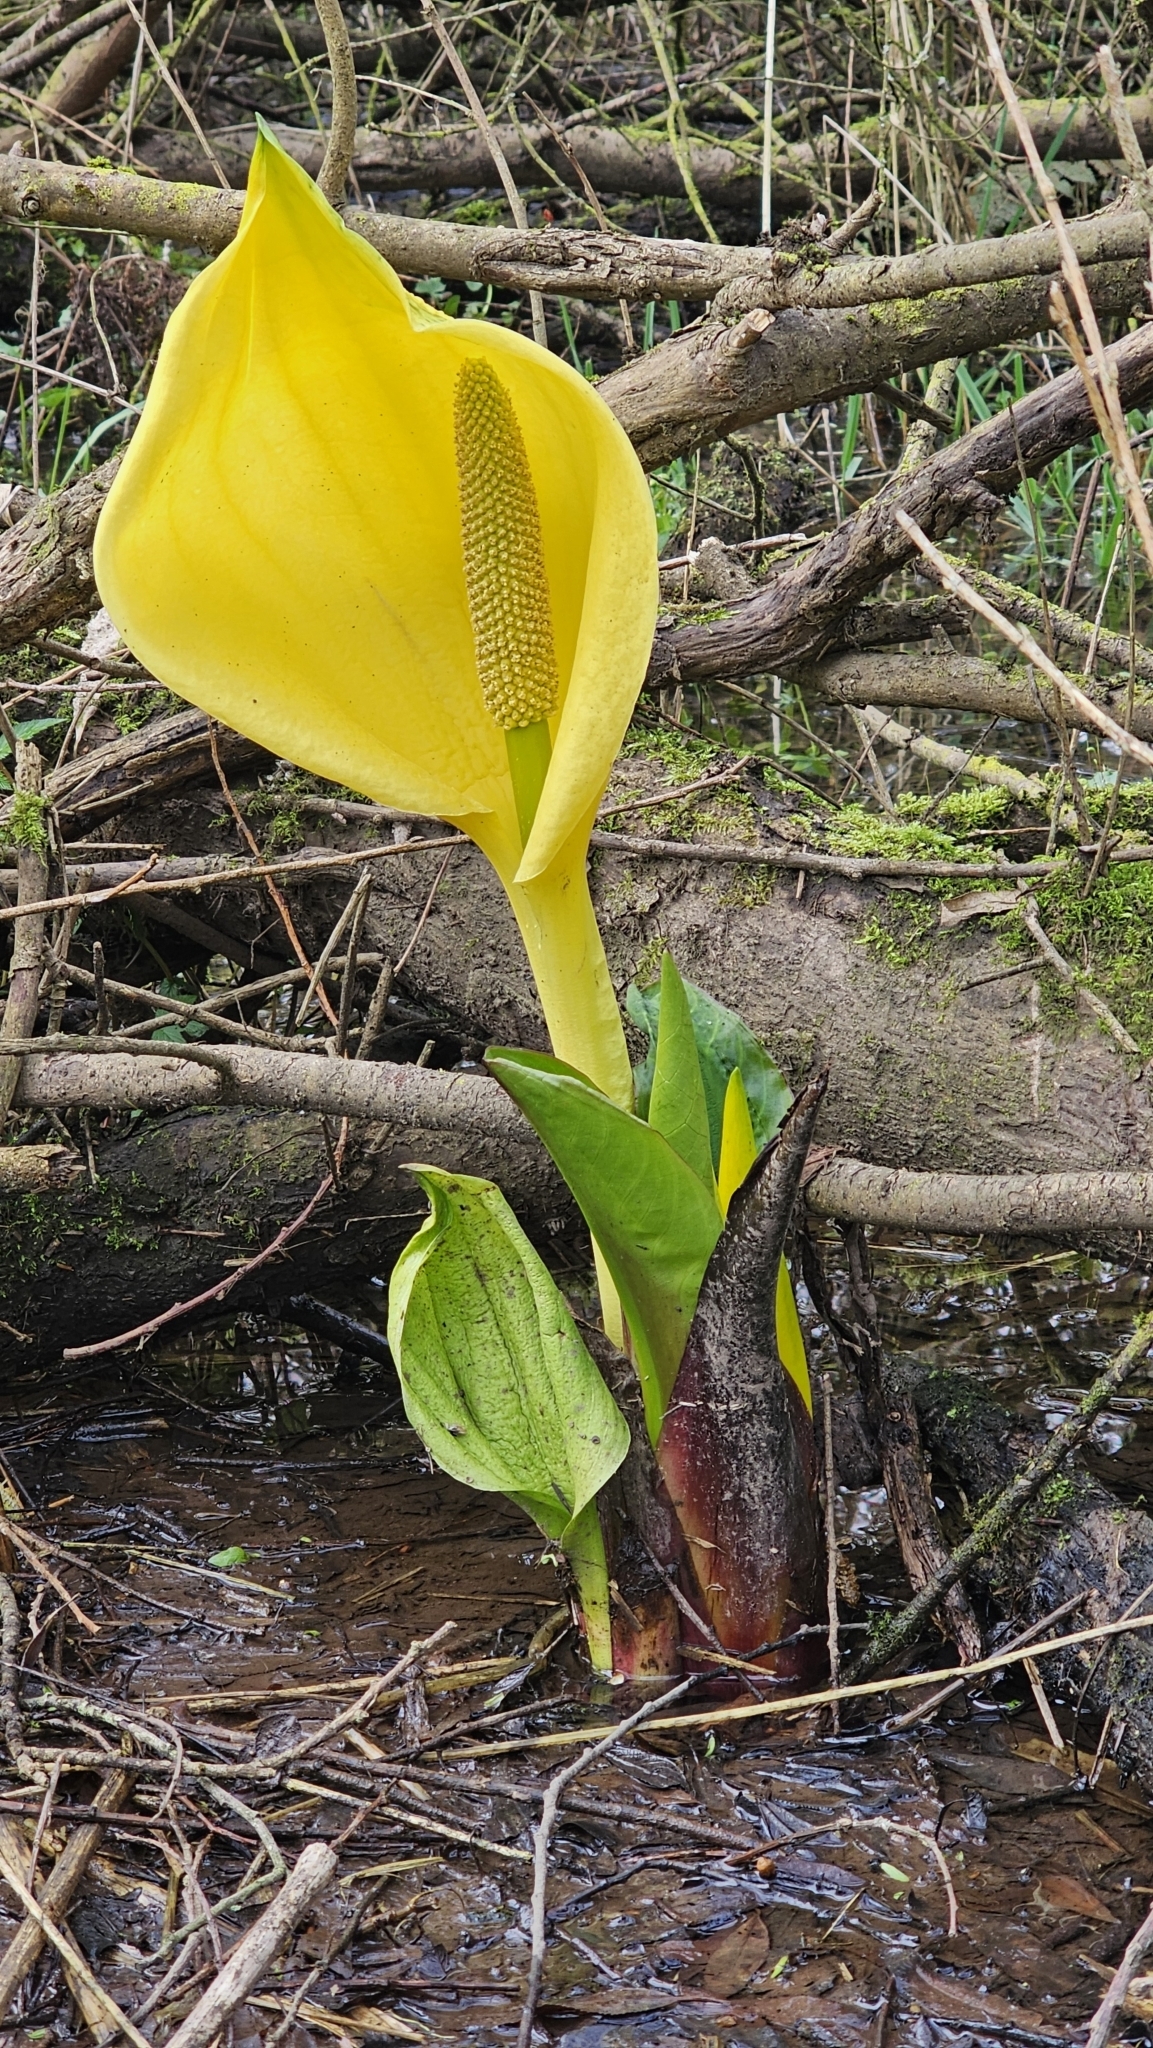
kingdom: Plantae
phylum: Tracheophyta
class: Liliopsida
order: Alismatales
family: Araceae
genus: Lysichiton
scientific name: Lysichiton americanus
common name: American skunk cabbage
